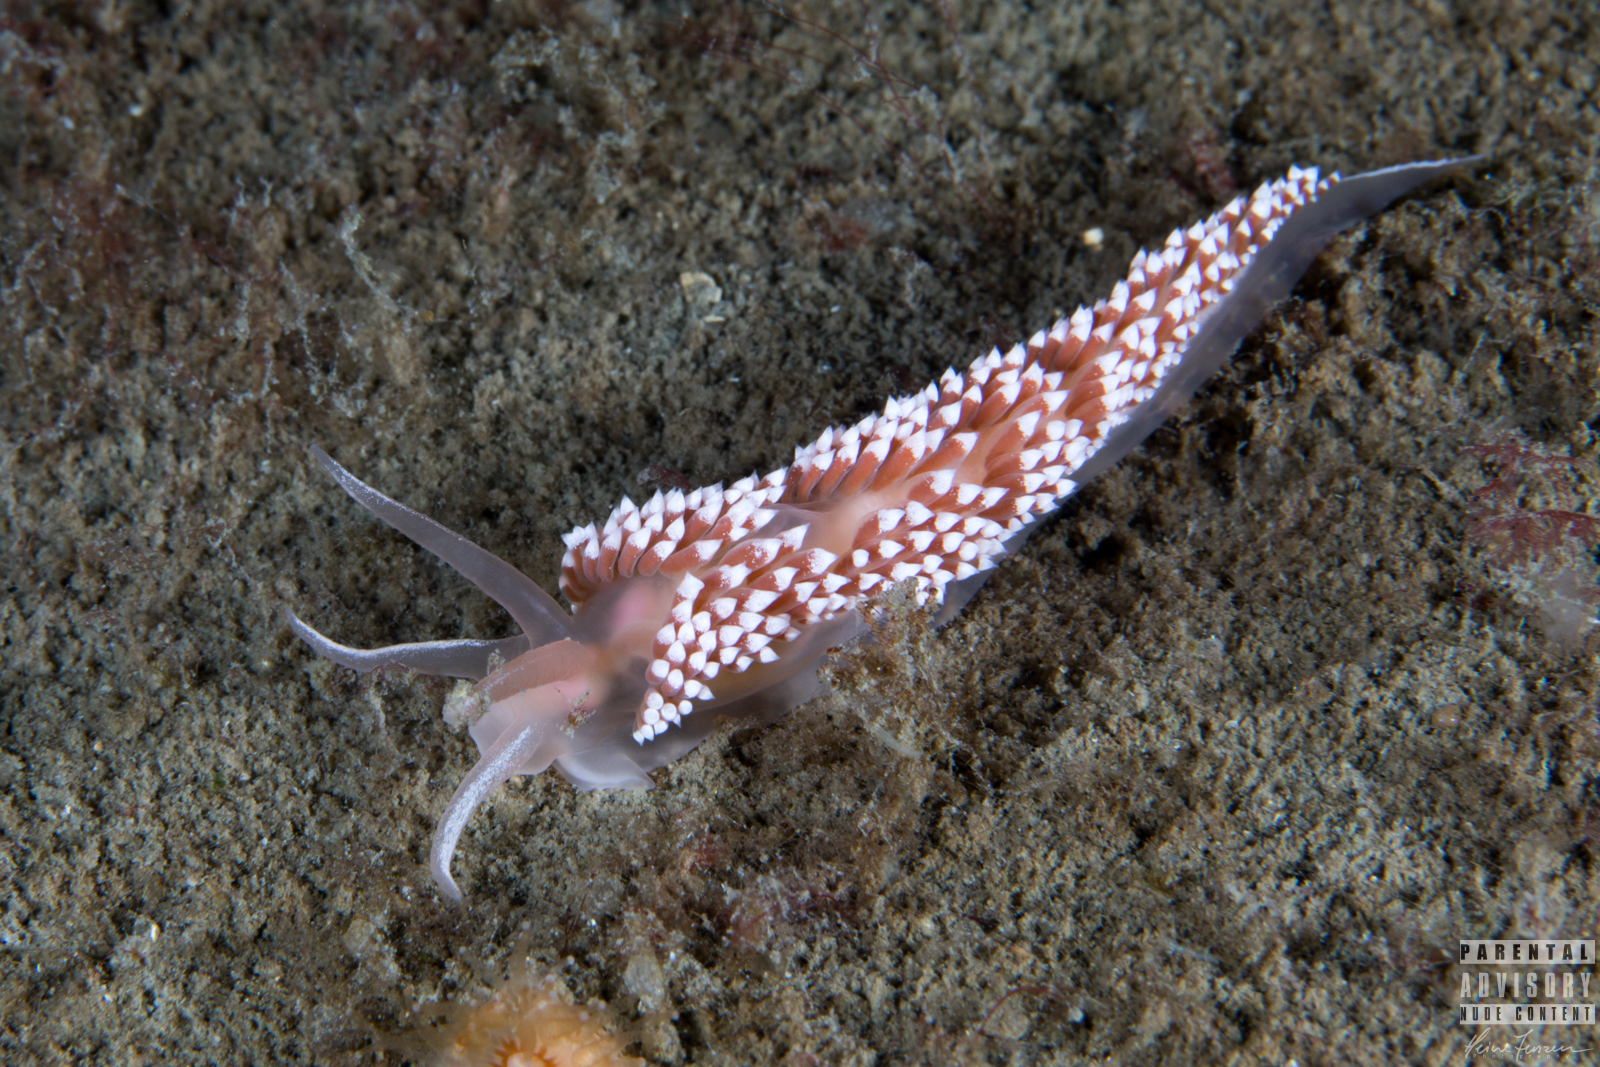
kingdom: Animalia
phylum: Mollusca
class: Gastropoda
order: Nudibranchia
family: Coryphellidae
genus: Coryphella
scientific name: Coryphella verrucosa
